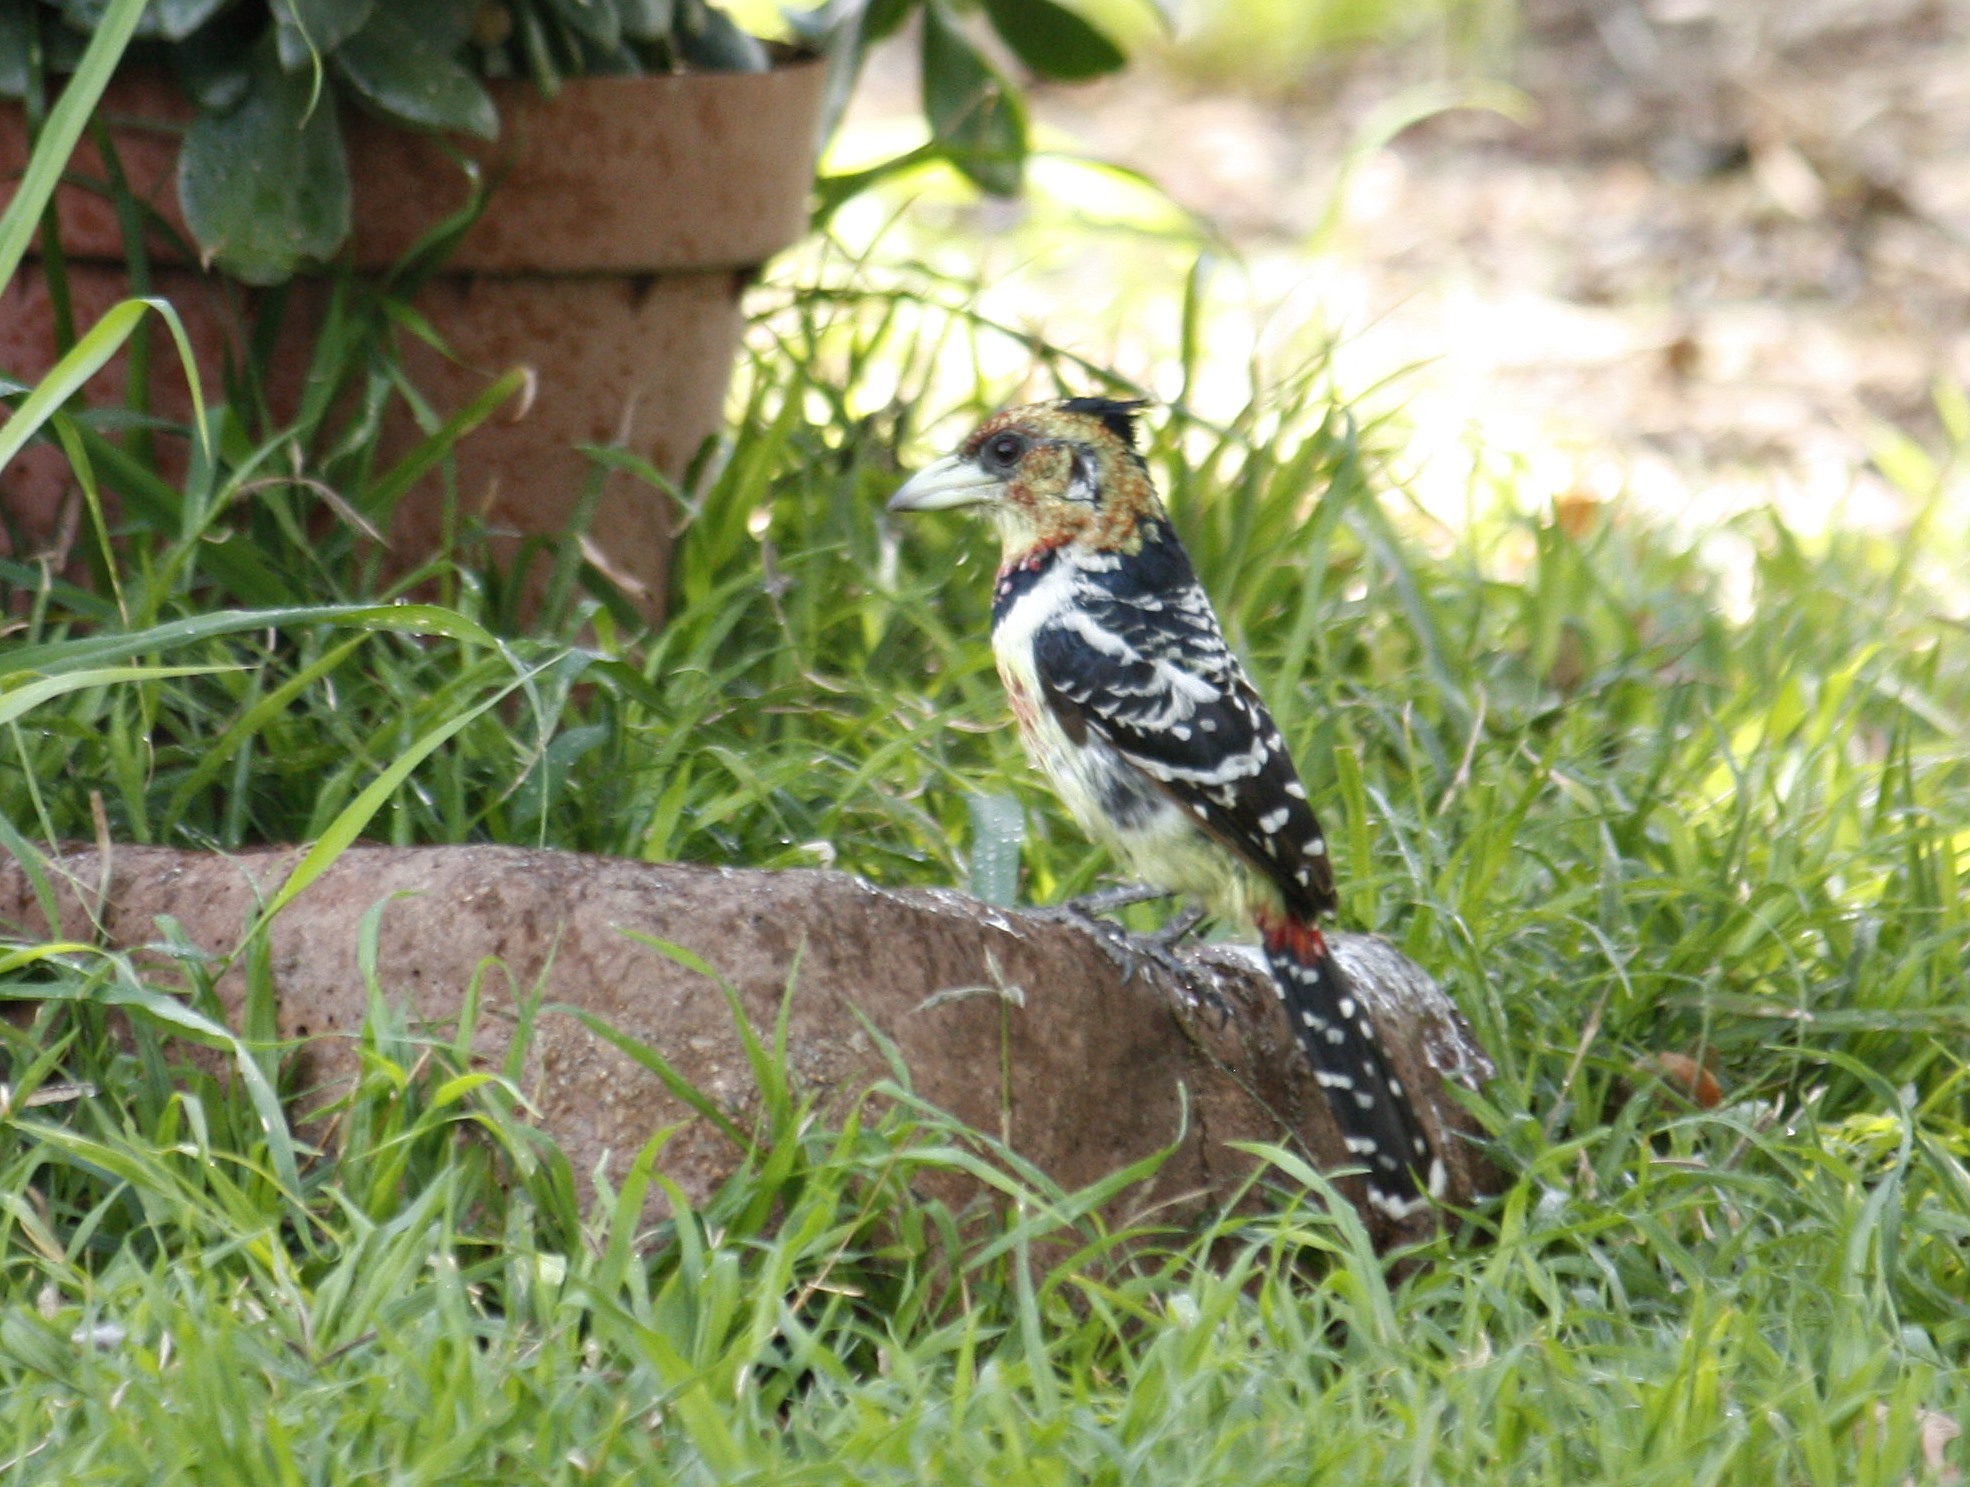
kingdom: Animalia
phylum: Chordata
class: Aves
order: Piciformes
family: Lybiidae
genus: Trachyphonus
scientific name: Trachyphonus vaillantii
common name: Crested barbet
